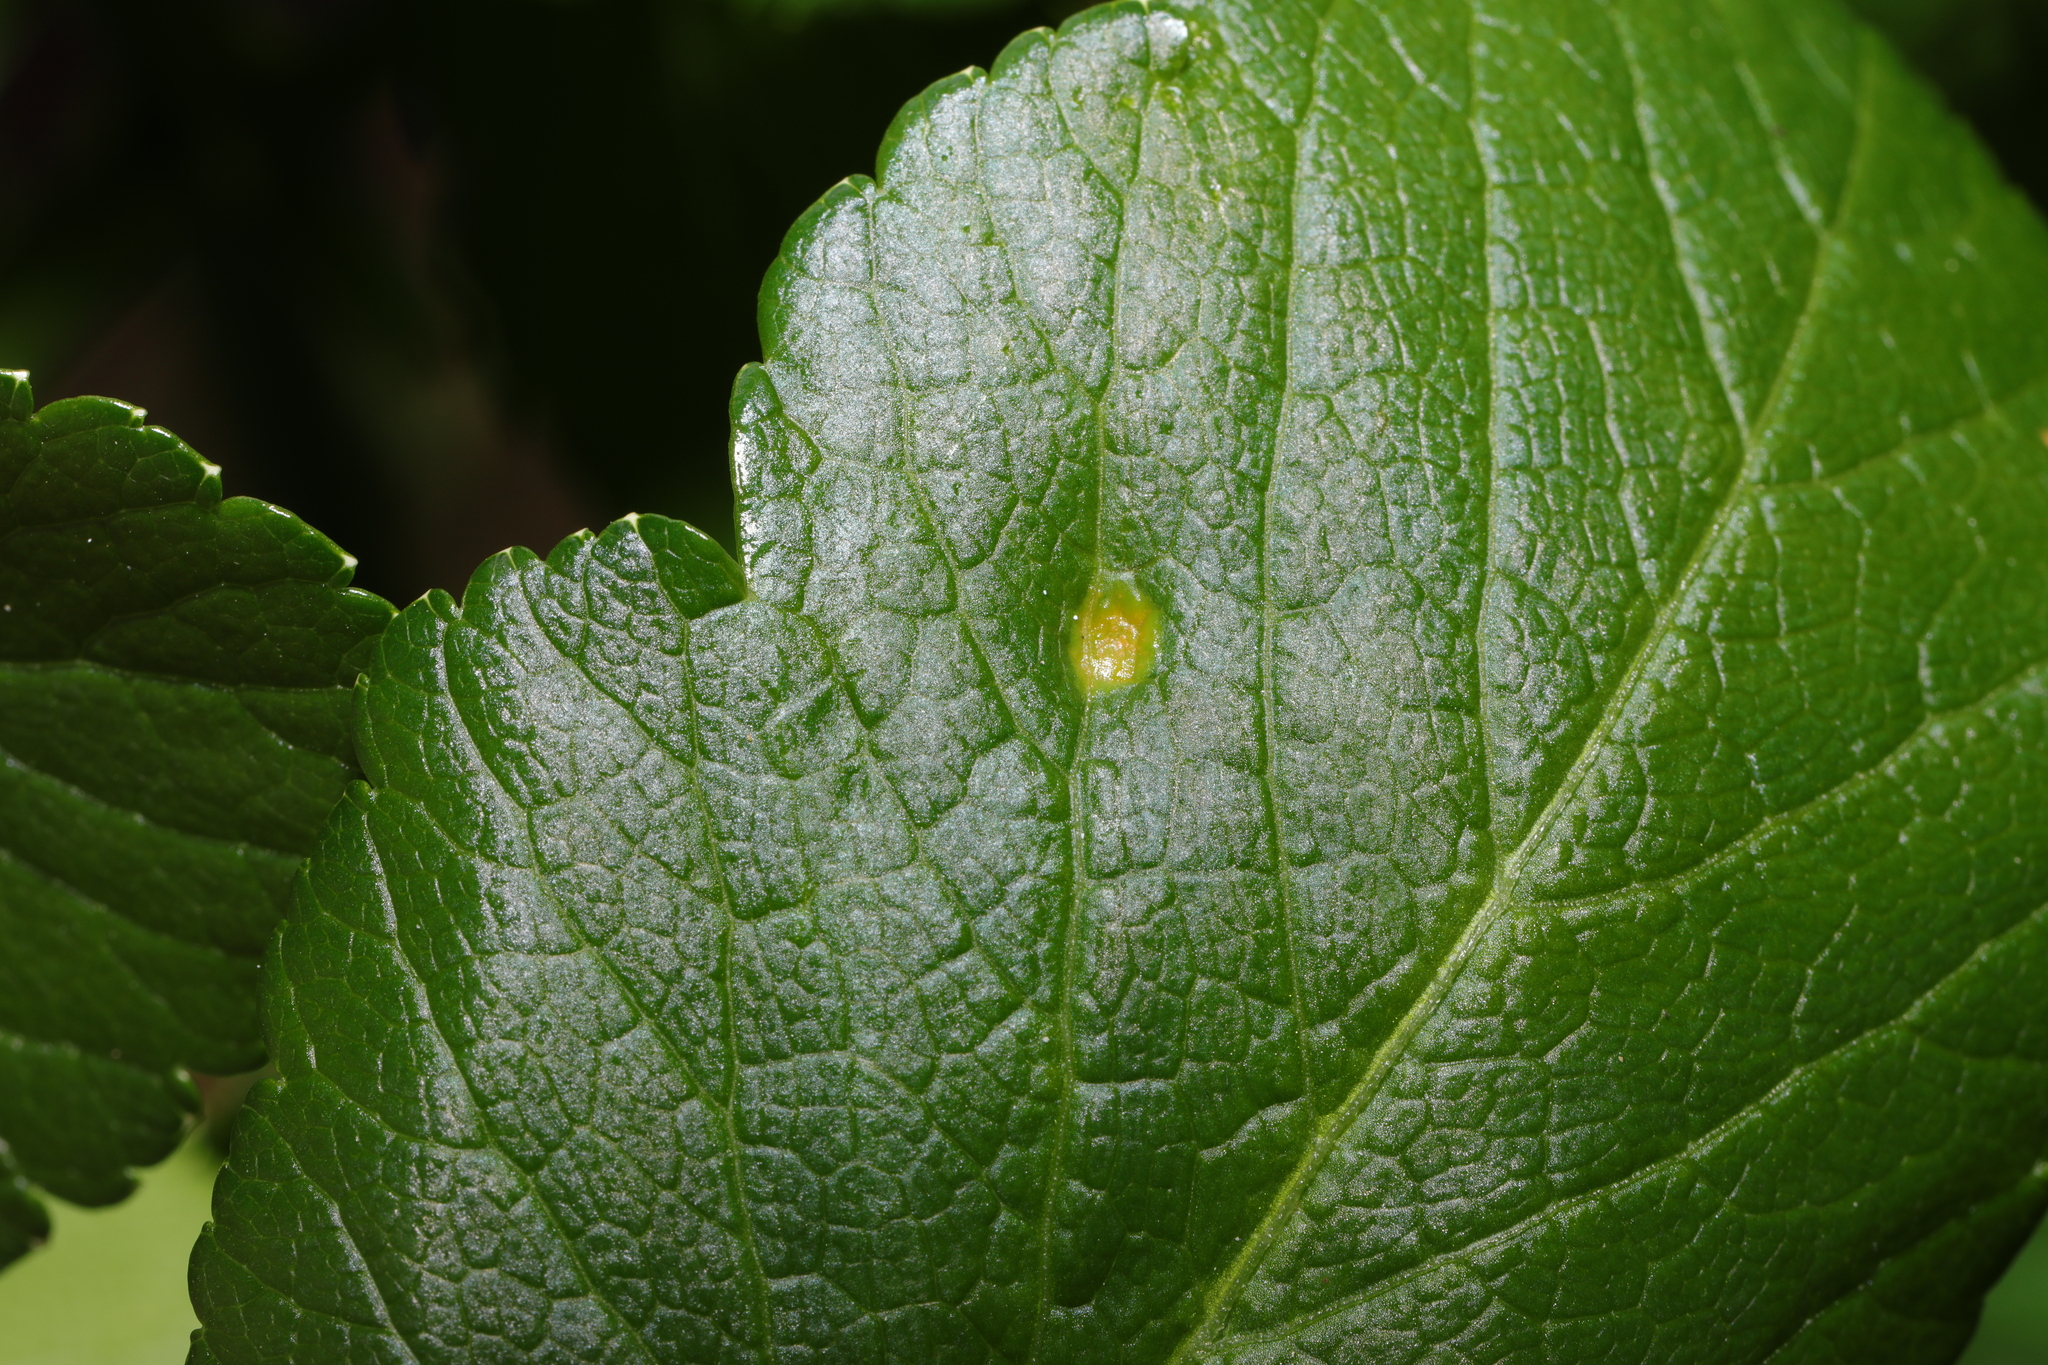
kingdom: Fungi
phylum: Basidiomycota
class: Pucciniomycetes
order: Pucciniales
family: Pucciniaceae
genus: Puccinia
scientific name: Puccinia smyrnii
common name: Alexanders rust
